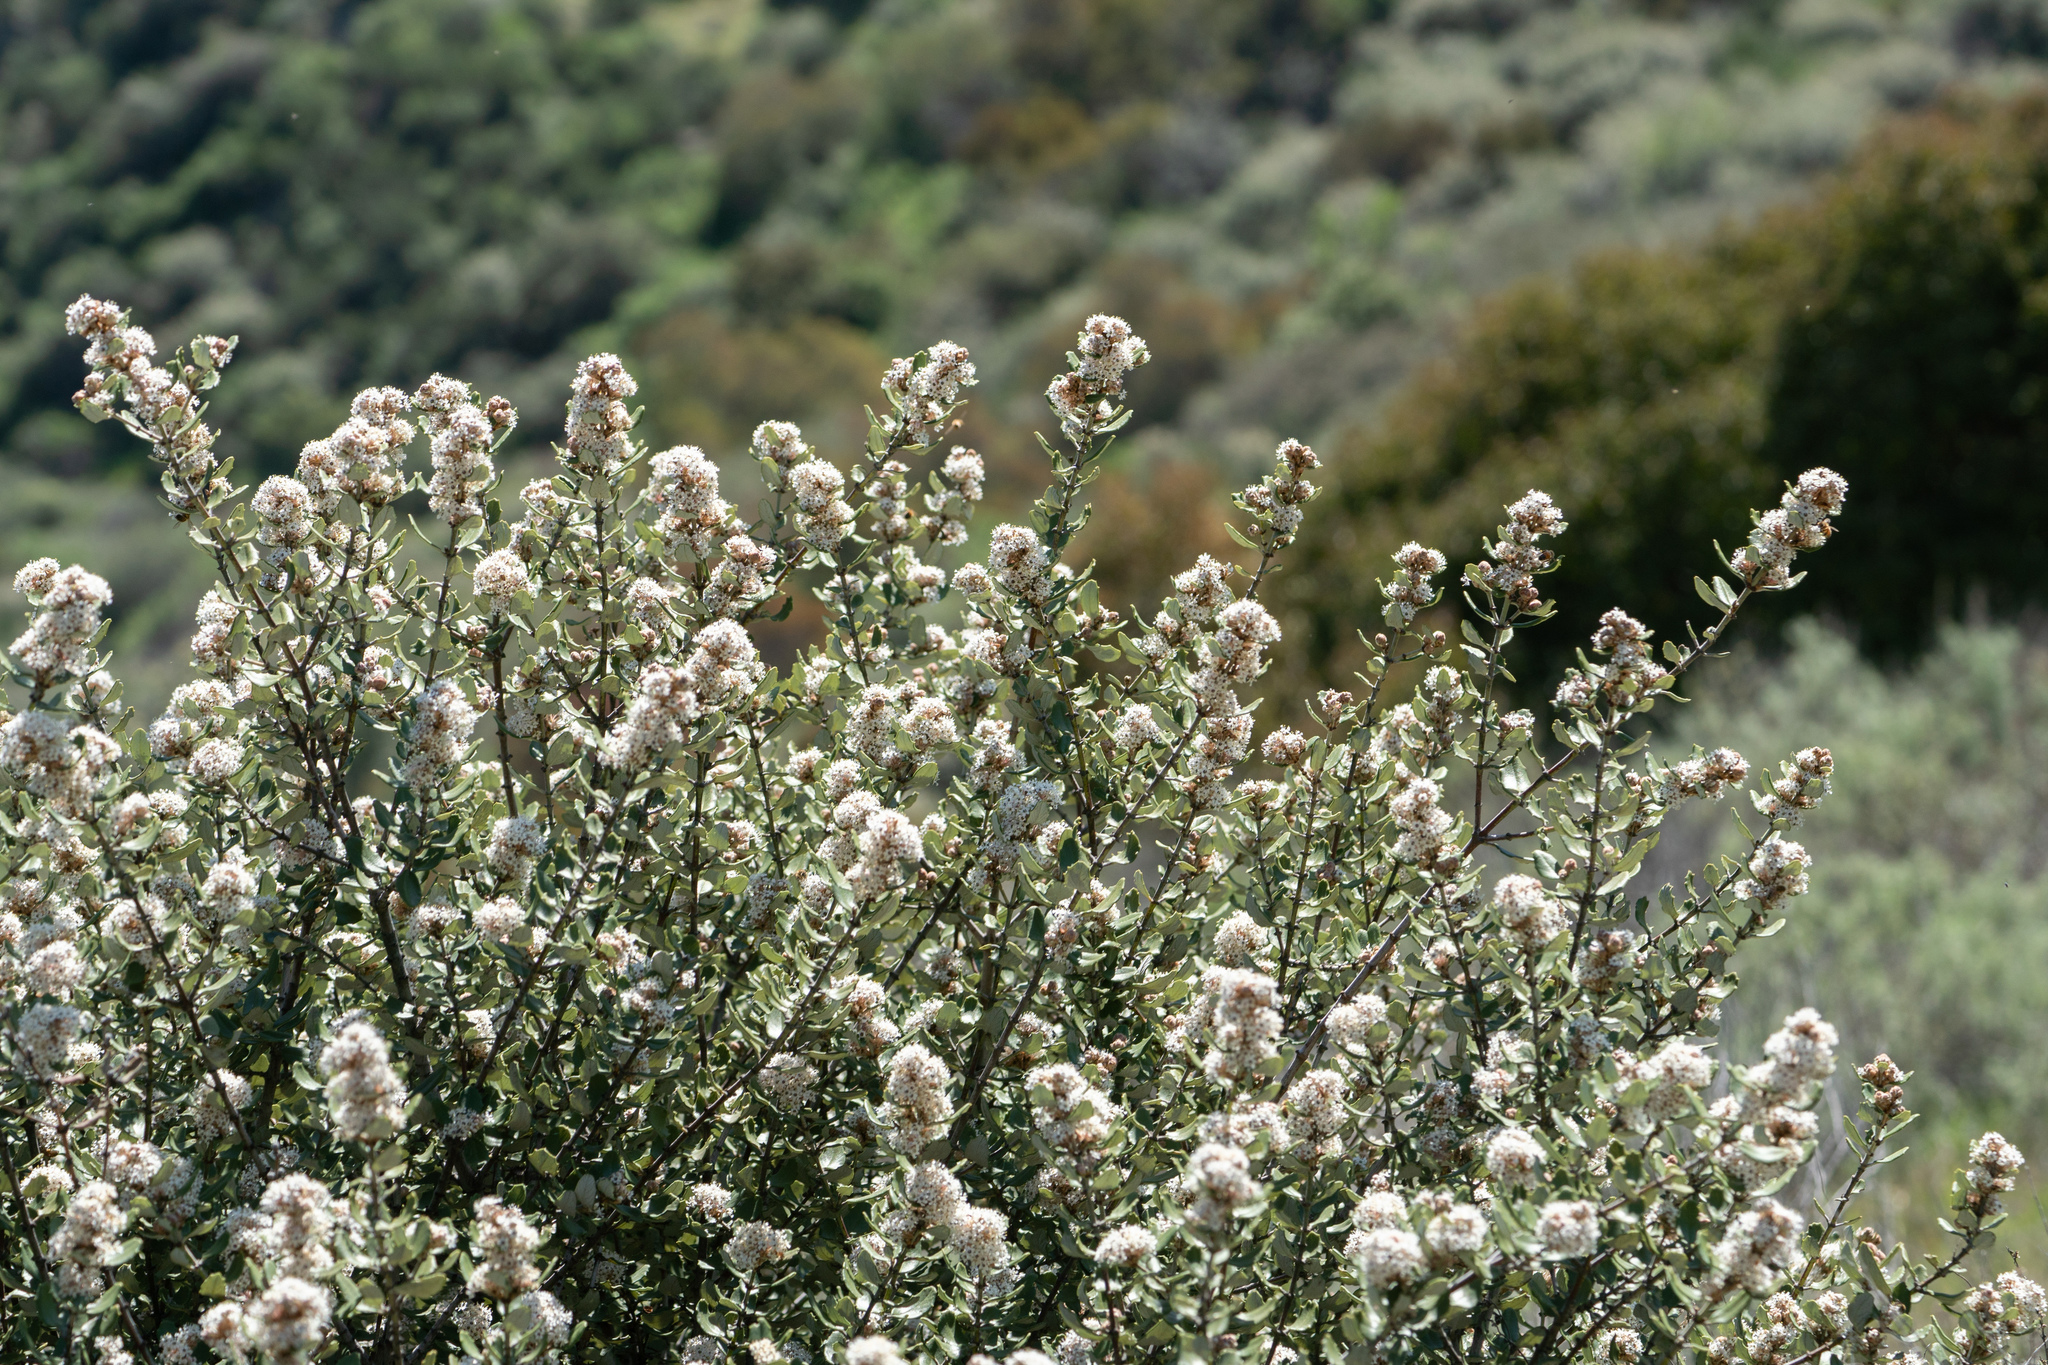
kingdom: Plantae
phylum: Tracheophyta
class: Magnoliopsida
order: Rosales
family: Rhamnaceae
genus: Ceanothus
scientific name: Ceanothus crassifolius
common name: Hoaryleaf ceanothus
